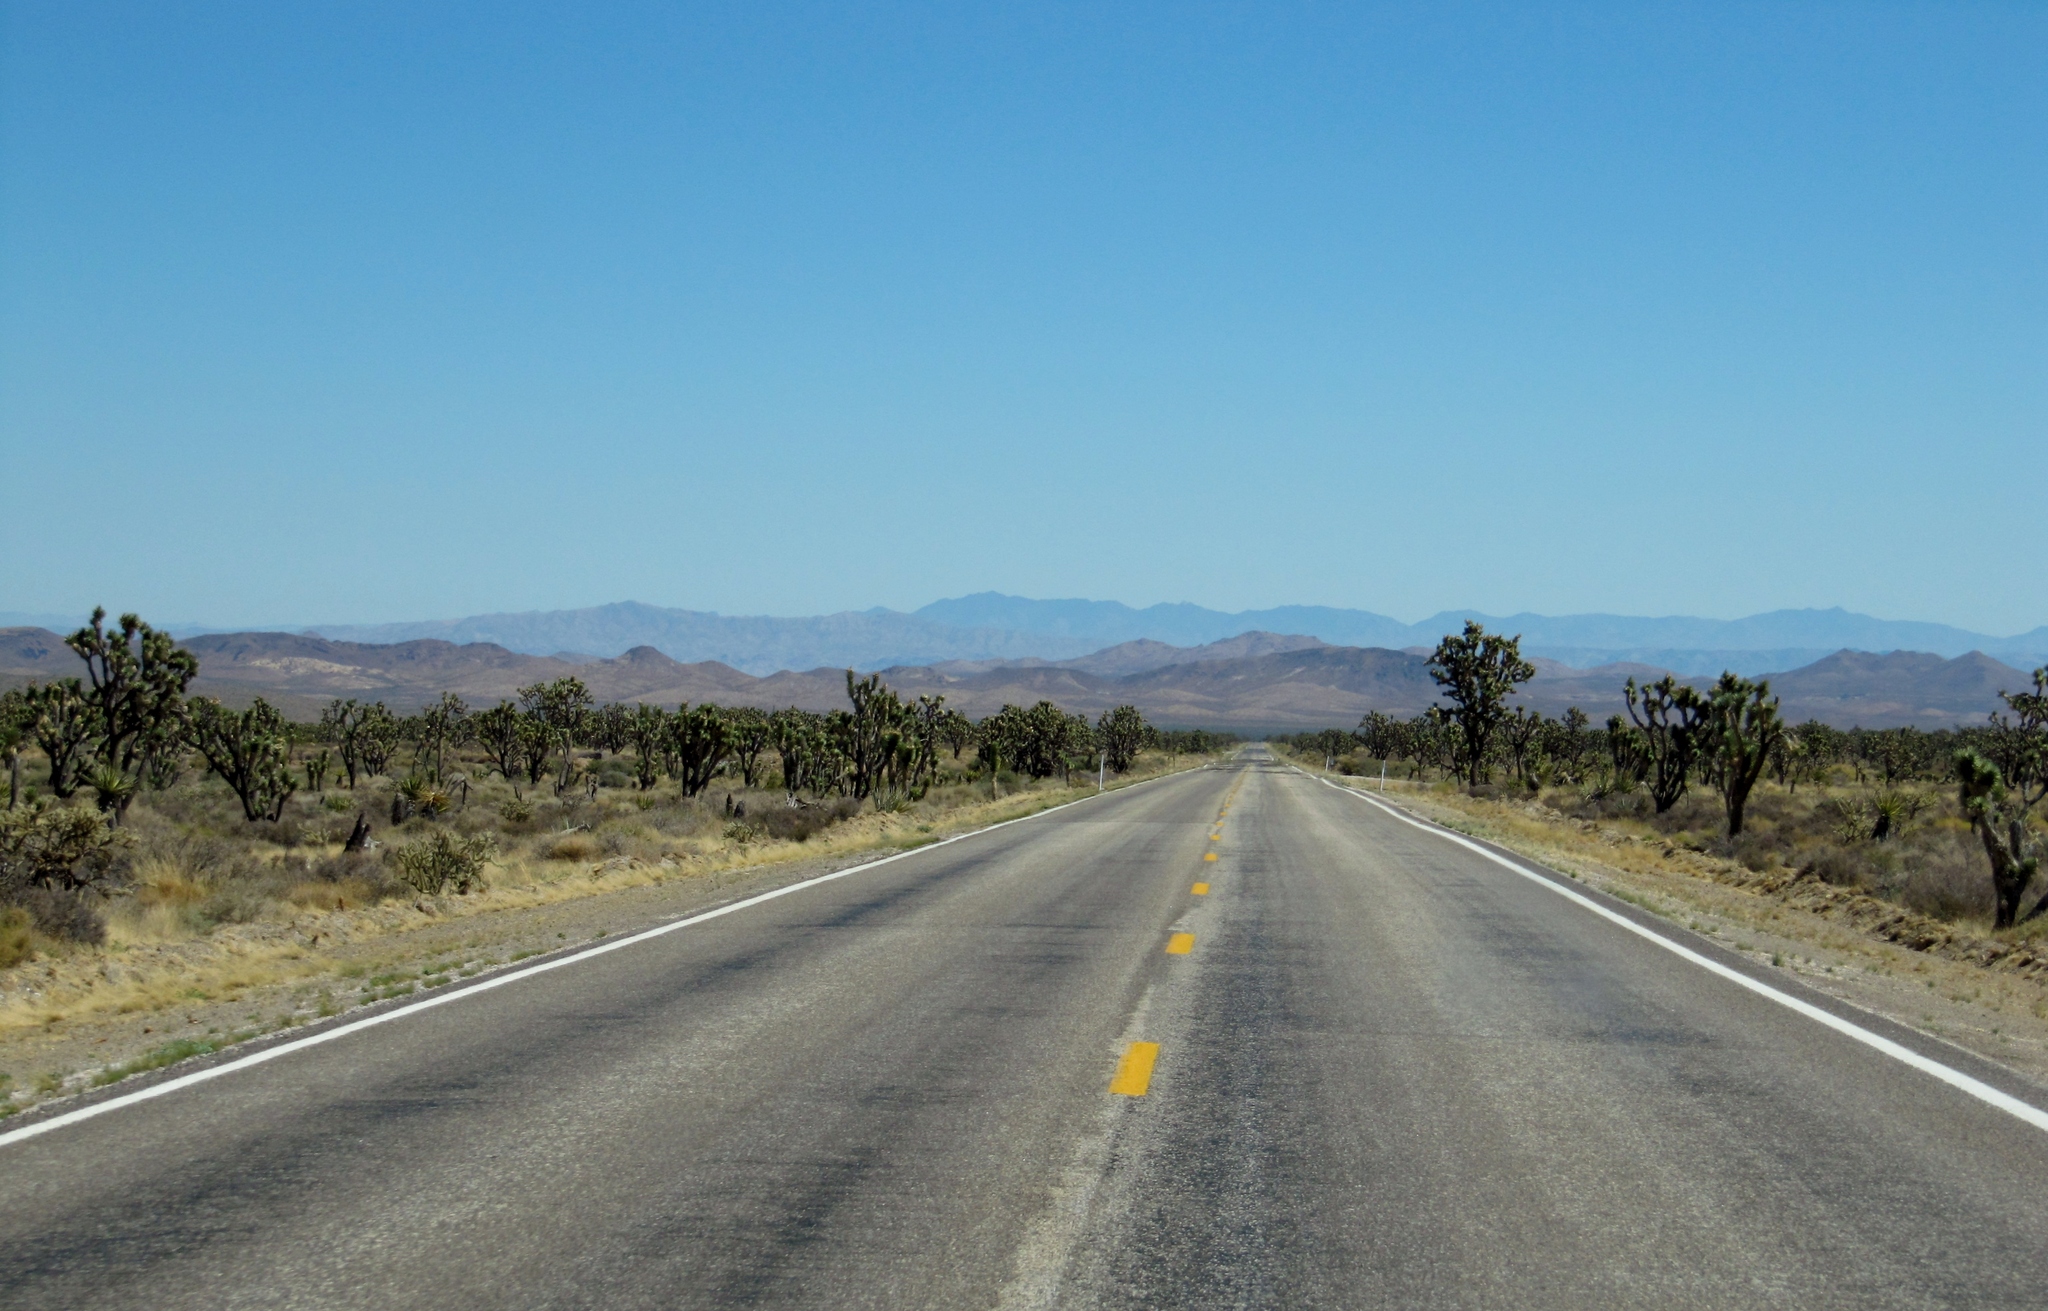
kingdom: Plantae
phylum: Tracheophyta
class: Liliopsida
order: Asparagales
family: Asparagaceae
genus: Yucca
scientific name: Yucca brevifolia
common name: Joshua tree
